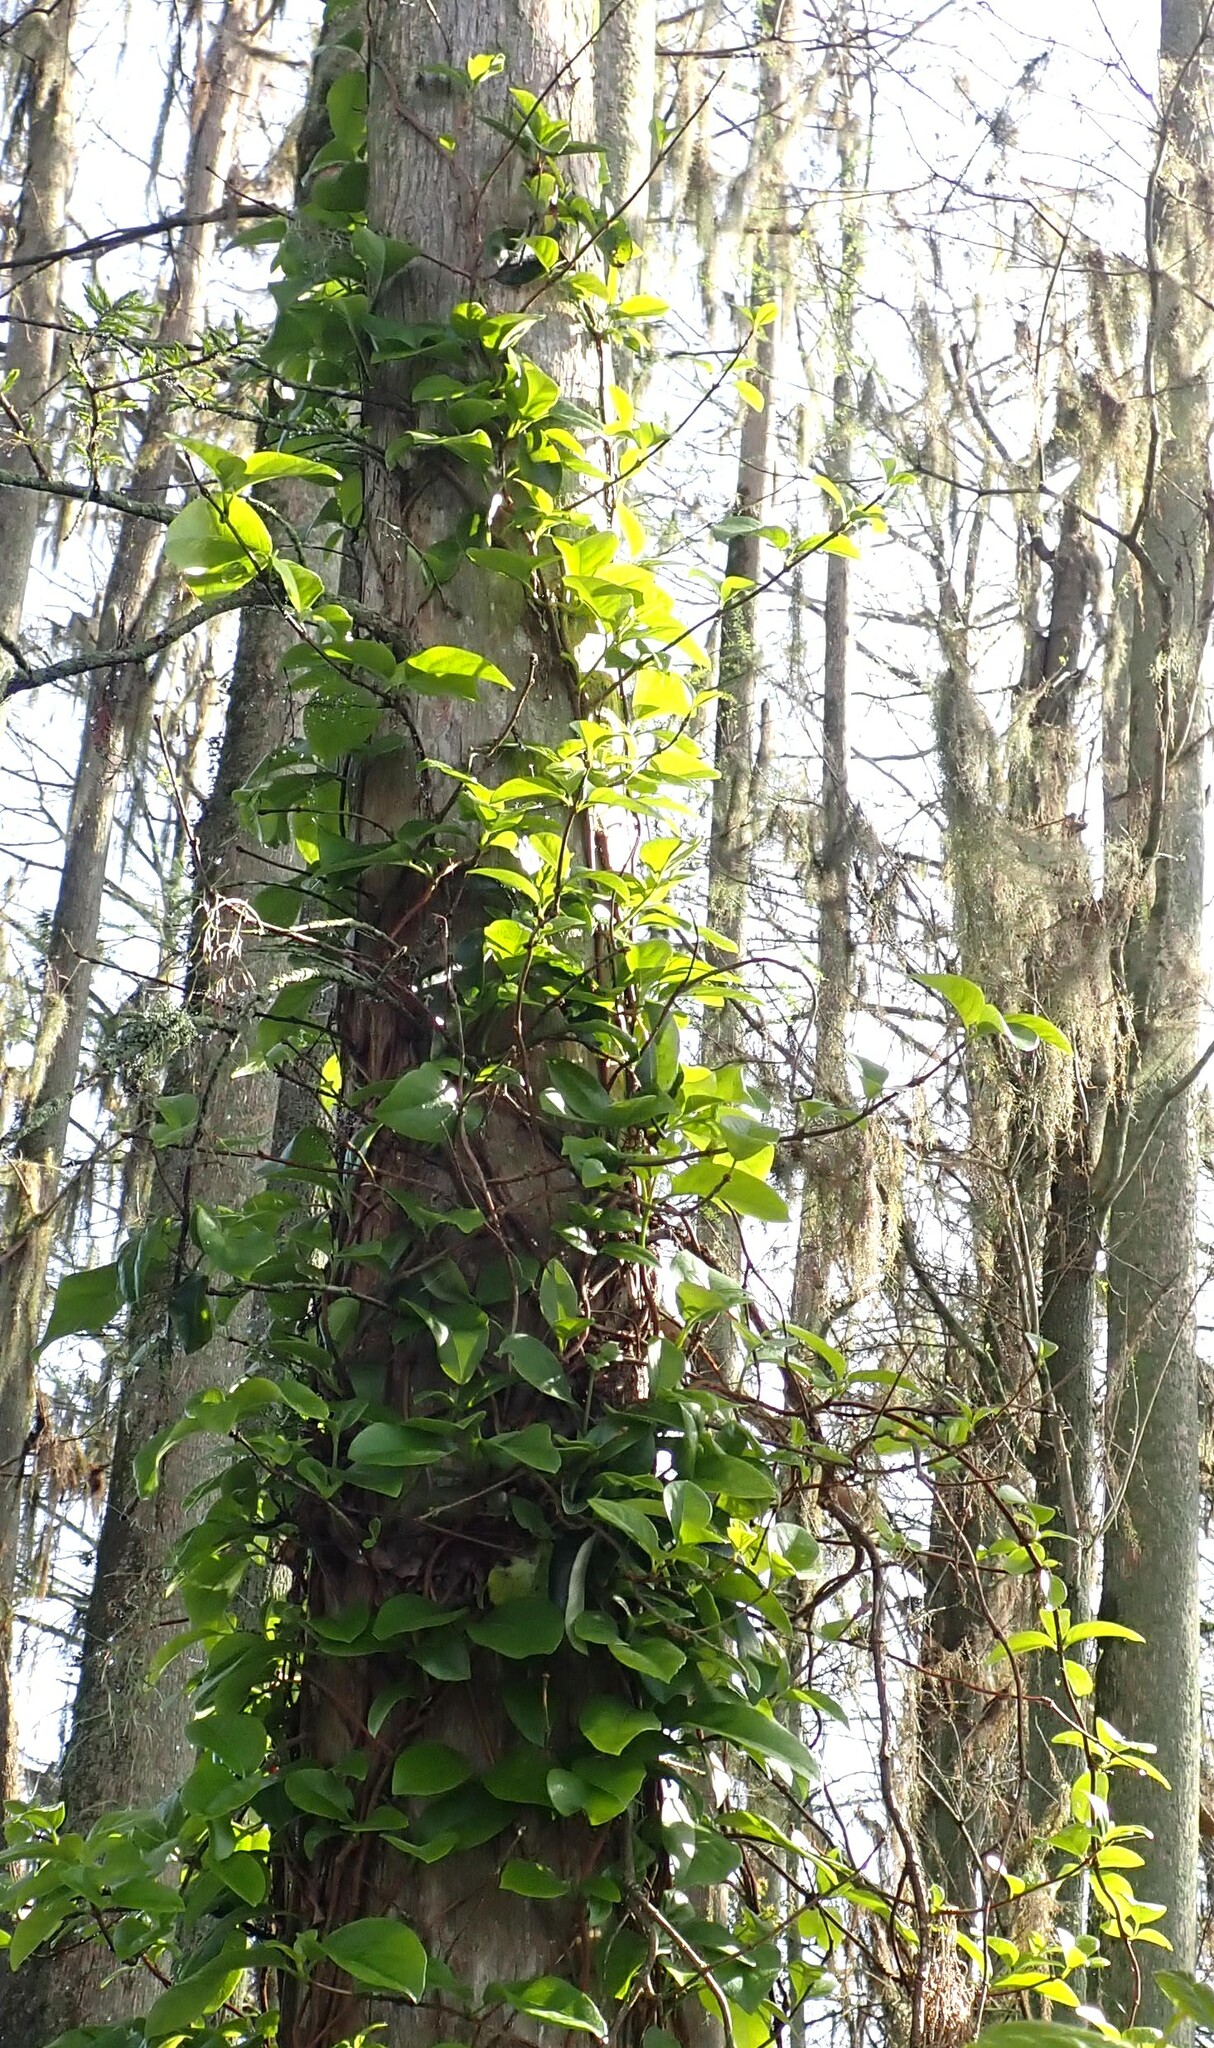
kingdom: Plantae
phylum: Tracheophyta
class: Magnoliopsida
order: Cornales
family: Hydrangeaceae
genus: Hydrangea
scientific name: Hydrangea barbara
